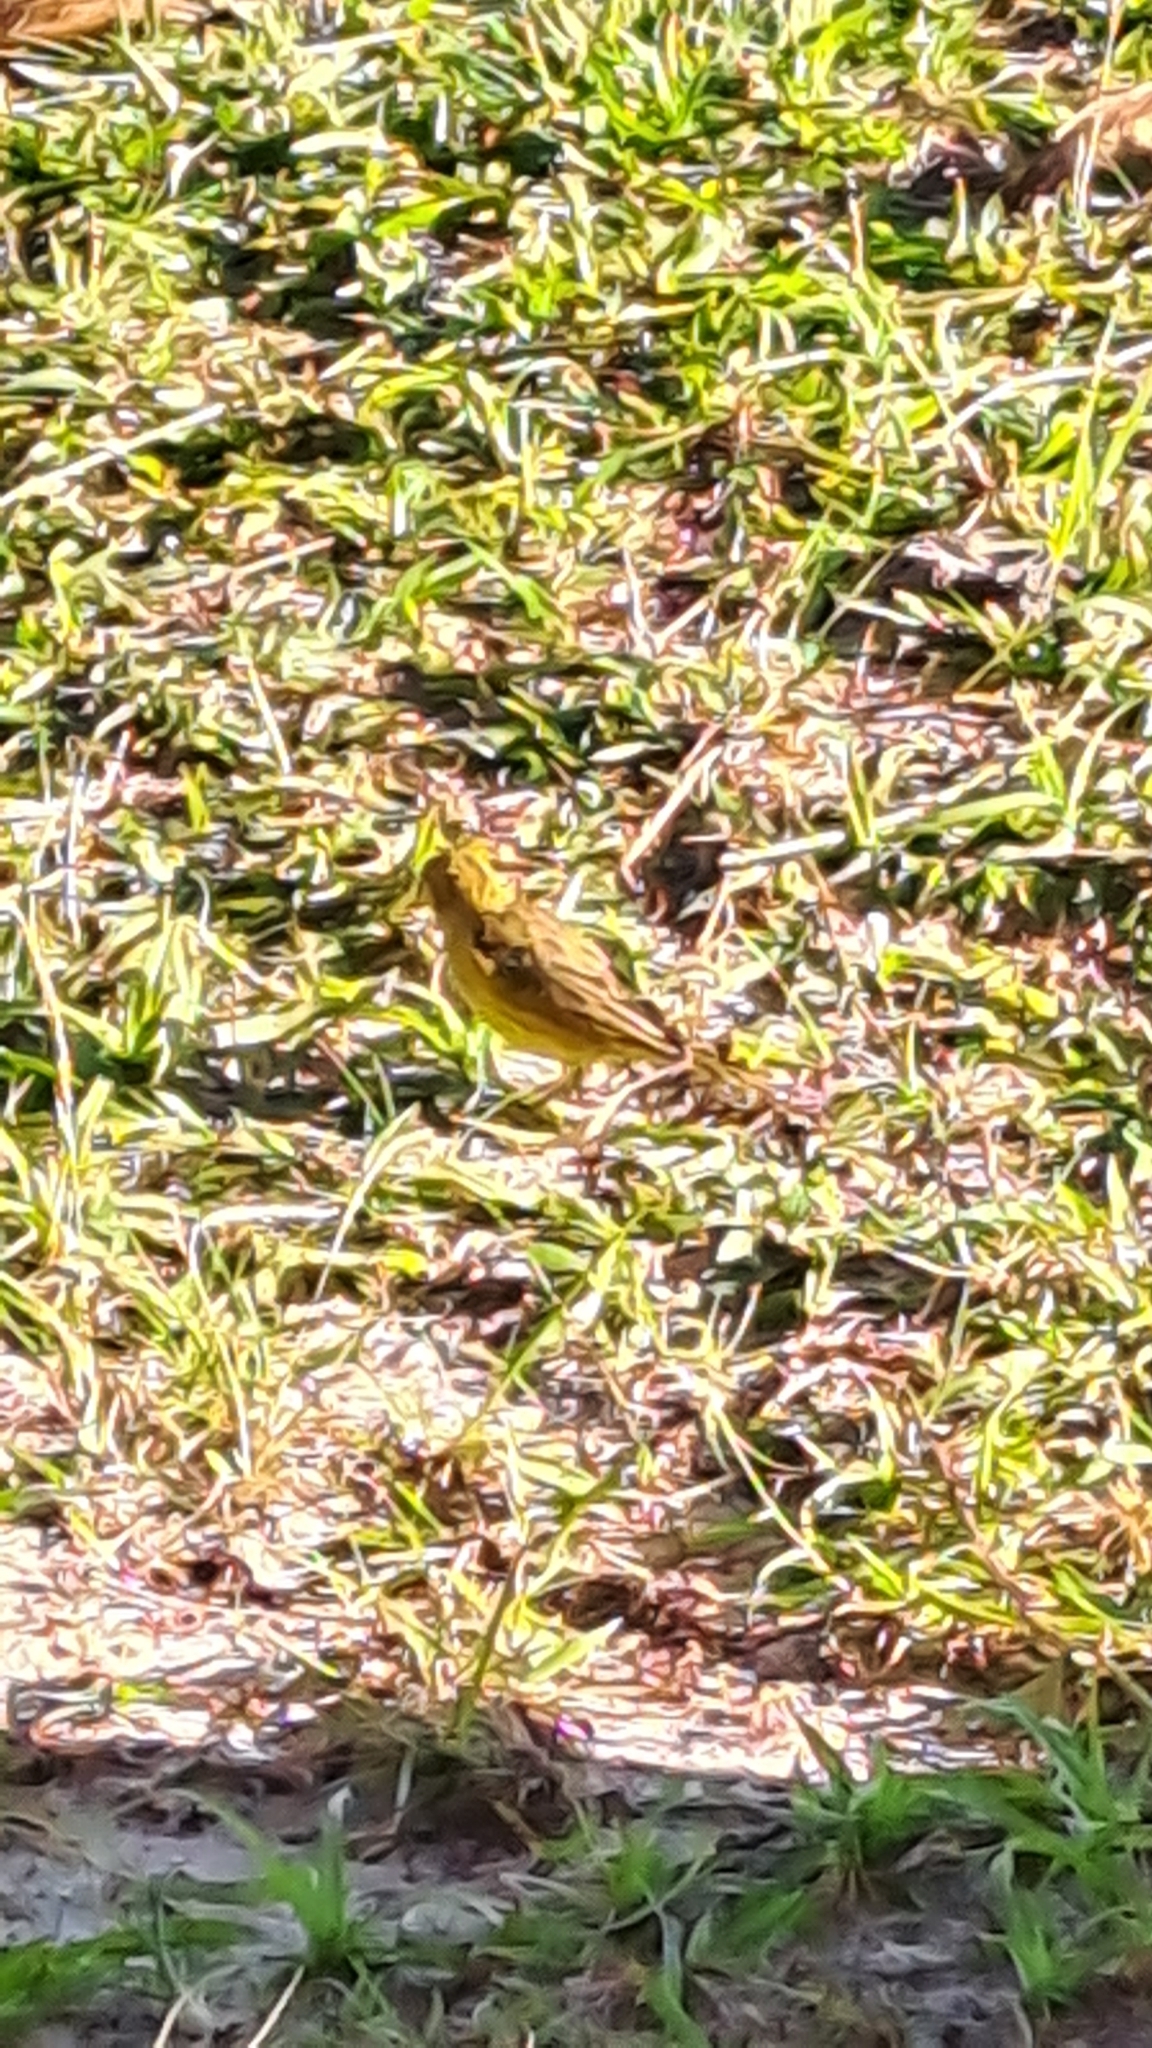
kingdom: Animalia
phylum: Chordata
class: Aves
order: Passeriformes
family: Thraupidae
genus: Sicalis
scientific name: Sicalis flaveola
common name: Saffron finch
